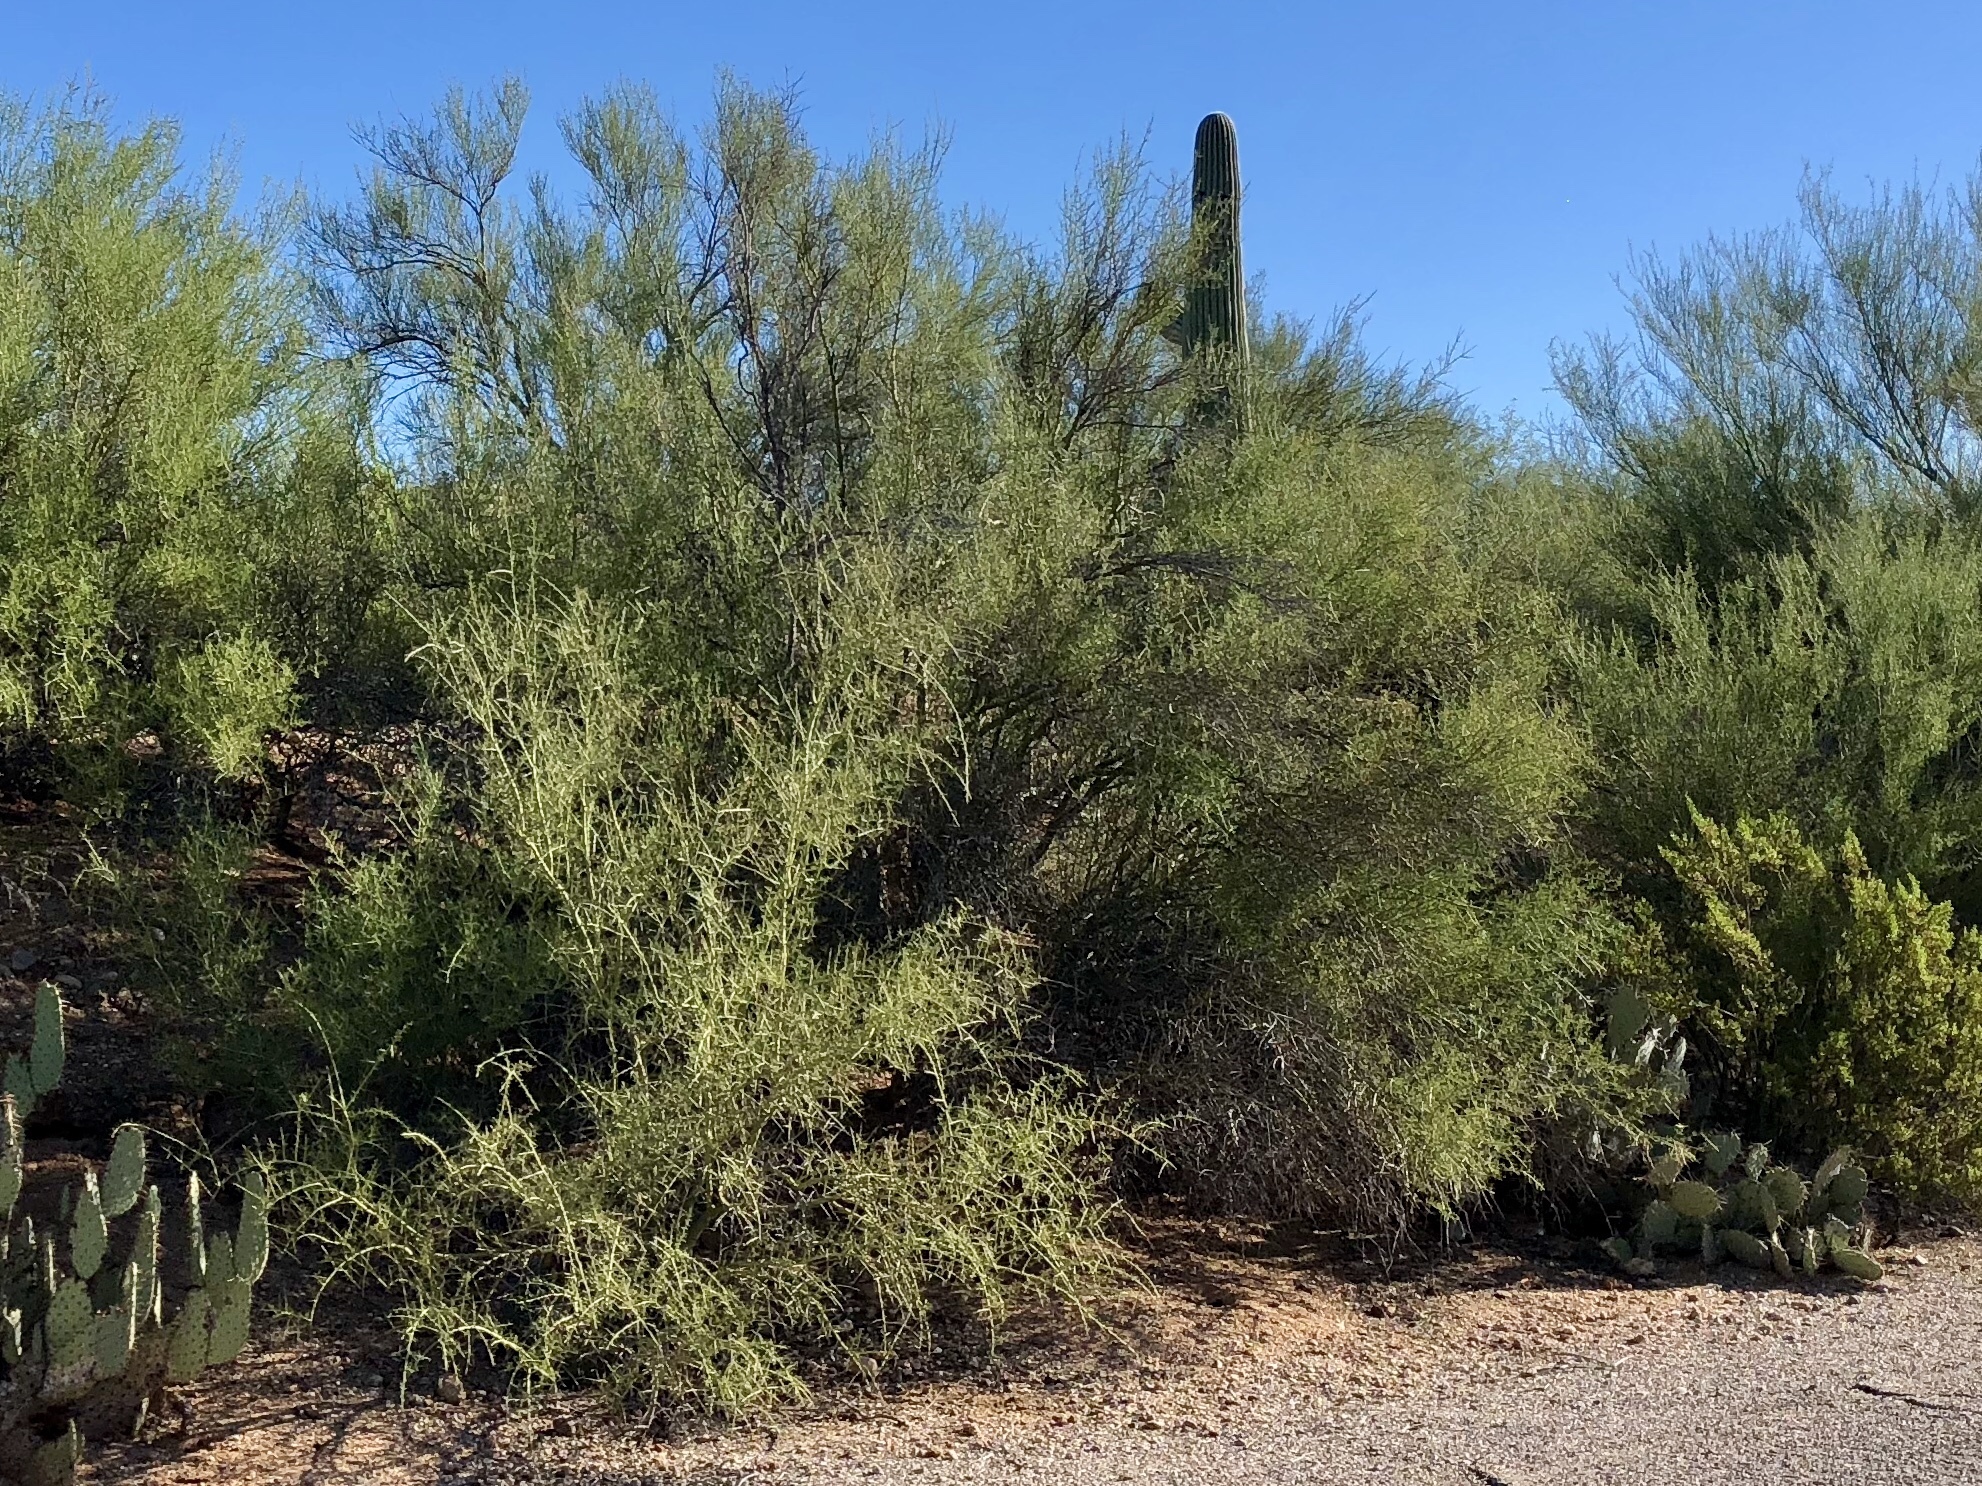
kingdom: Plantae
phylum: Tracheophyta
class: Magnoliopsida
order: Fabales
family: Fabaceae
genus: Parkinsonia
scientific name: Parkinsonia microphylla
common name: Yellow paloverde
